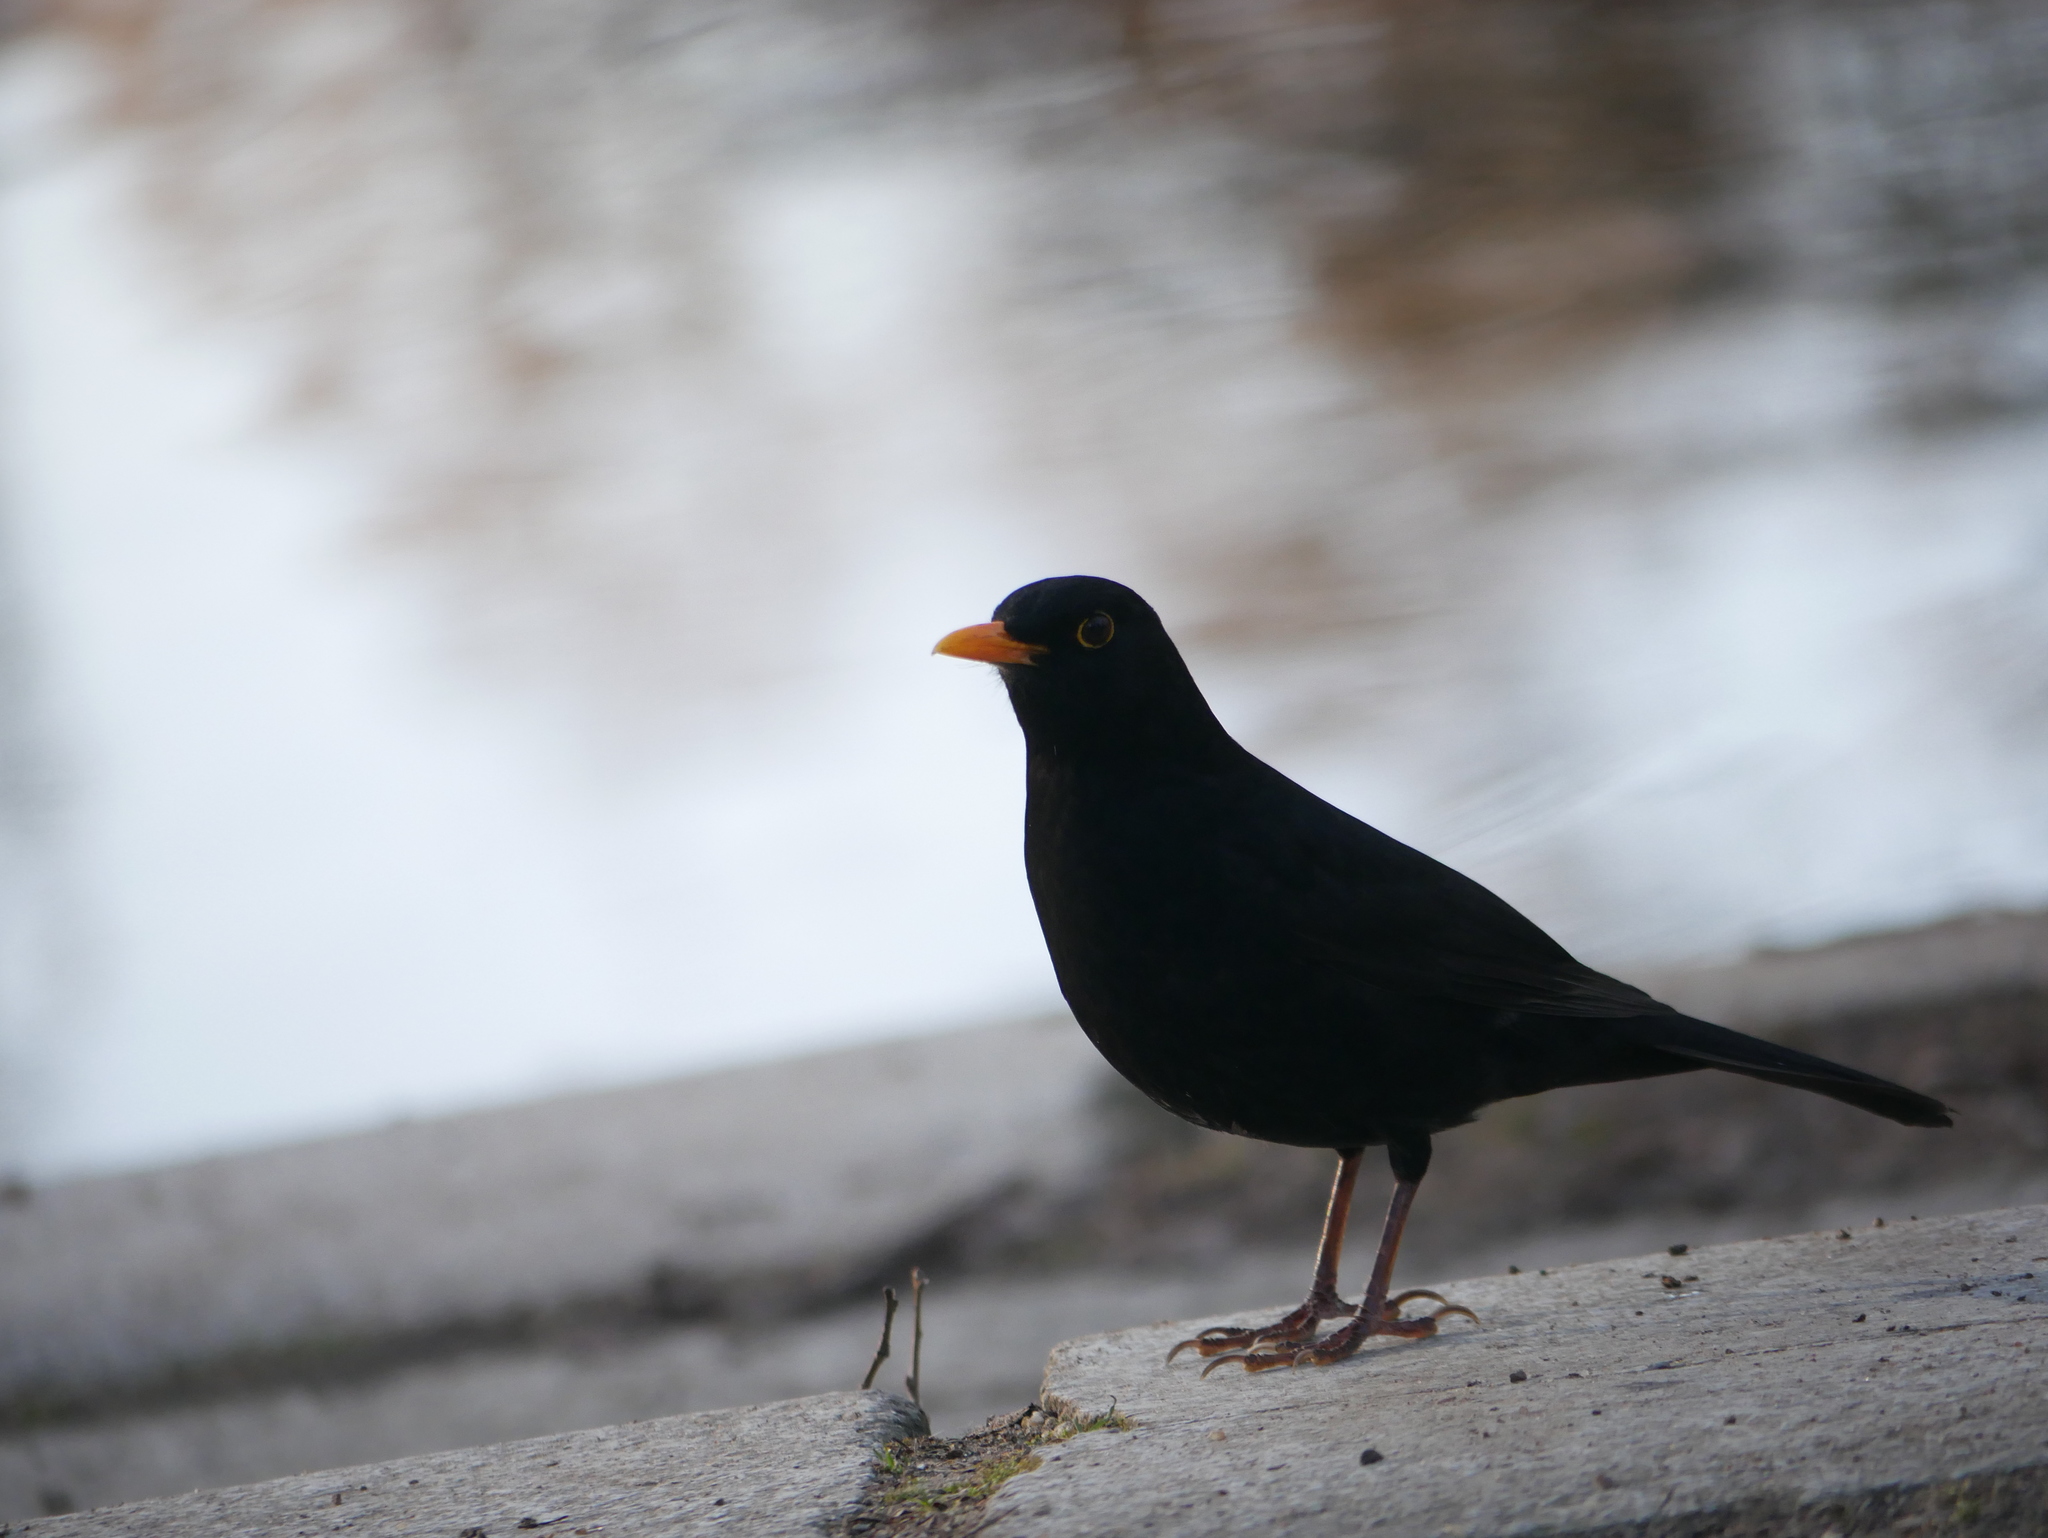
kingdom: Animalia
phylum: Chordata
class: Aves
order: Passeriformes
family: Turdidae
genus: Turdus
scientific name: Turdus merula
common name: Common blackbird
